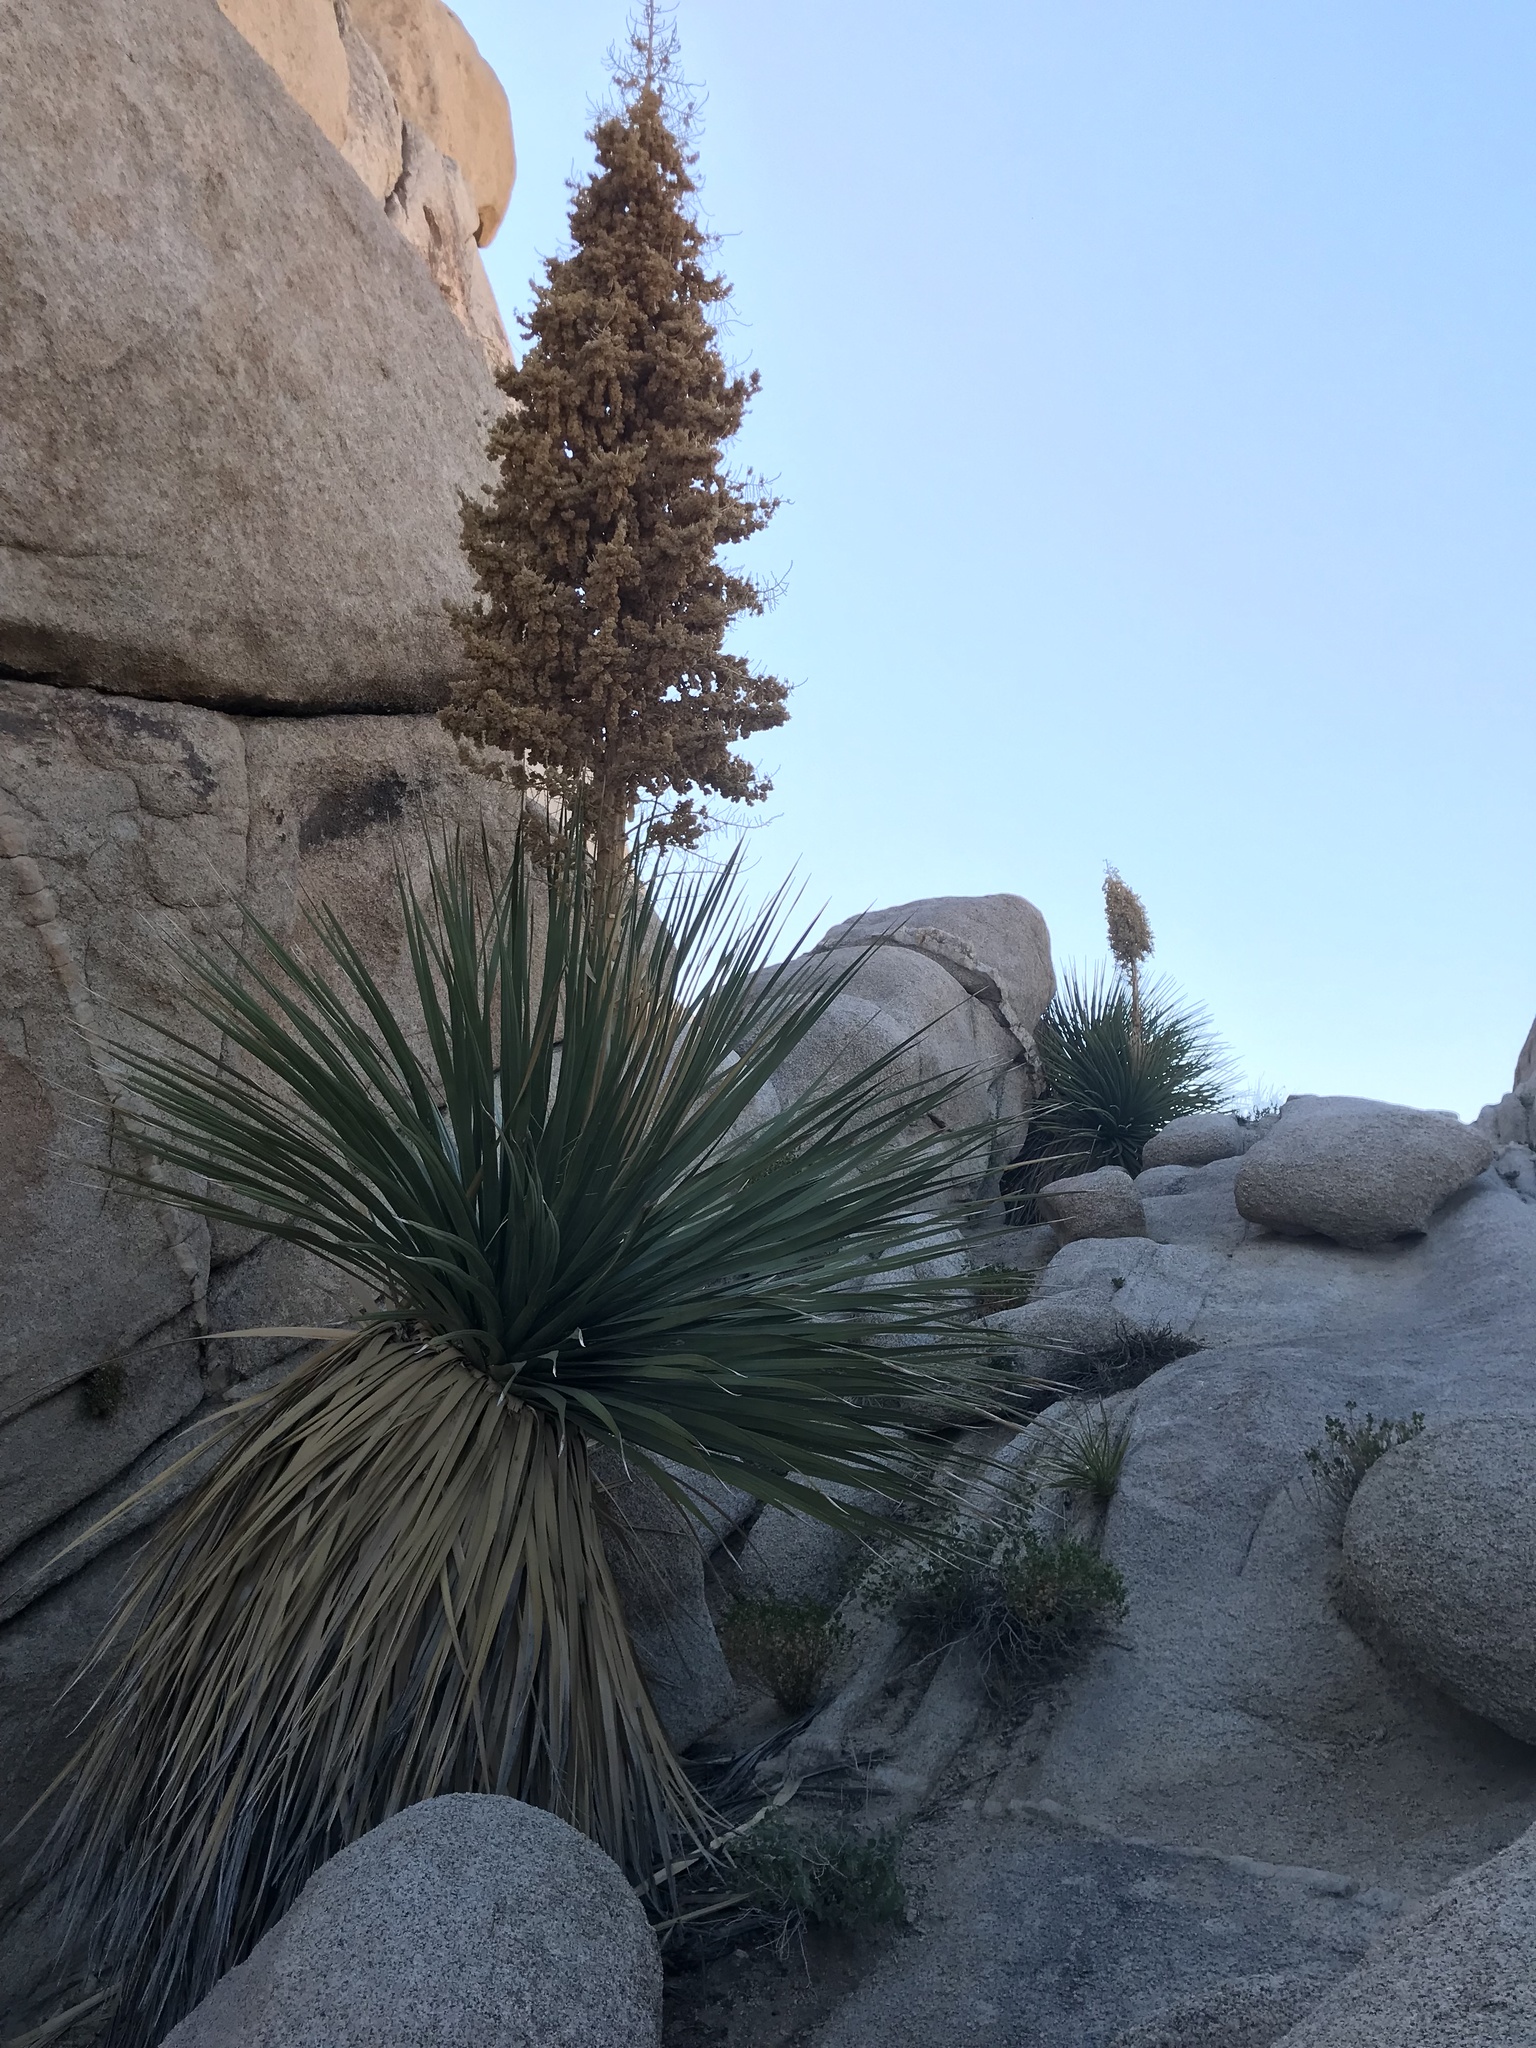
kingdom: Plantae
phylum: Tracheophyta
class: Liliopsida
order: Asparagales
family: Asparagaceae
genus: Nolina
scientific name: Nolina parryi
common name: Parry nolina
